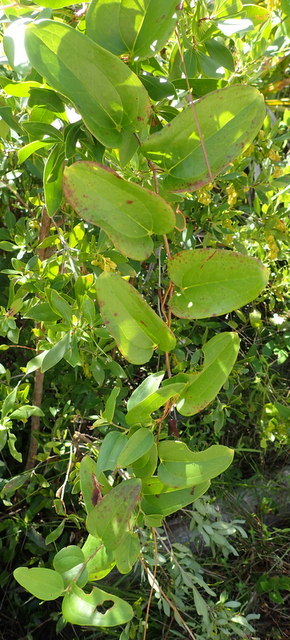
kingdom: Plantae
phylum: Tracheophyta
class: Liliopsida
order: Liliales
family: Smilacaceae
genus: Smilax
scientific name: Smilax glauca
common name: Cat greenbrier
